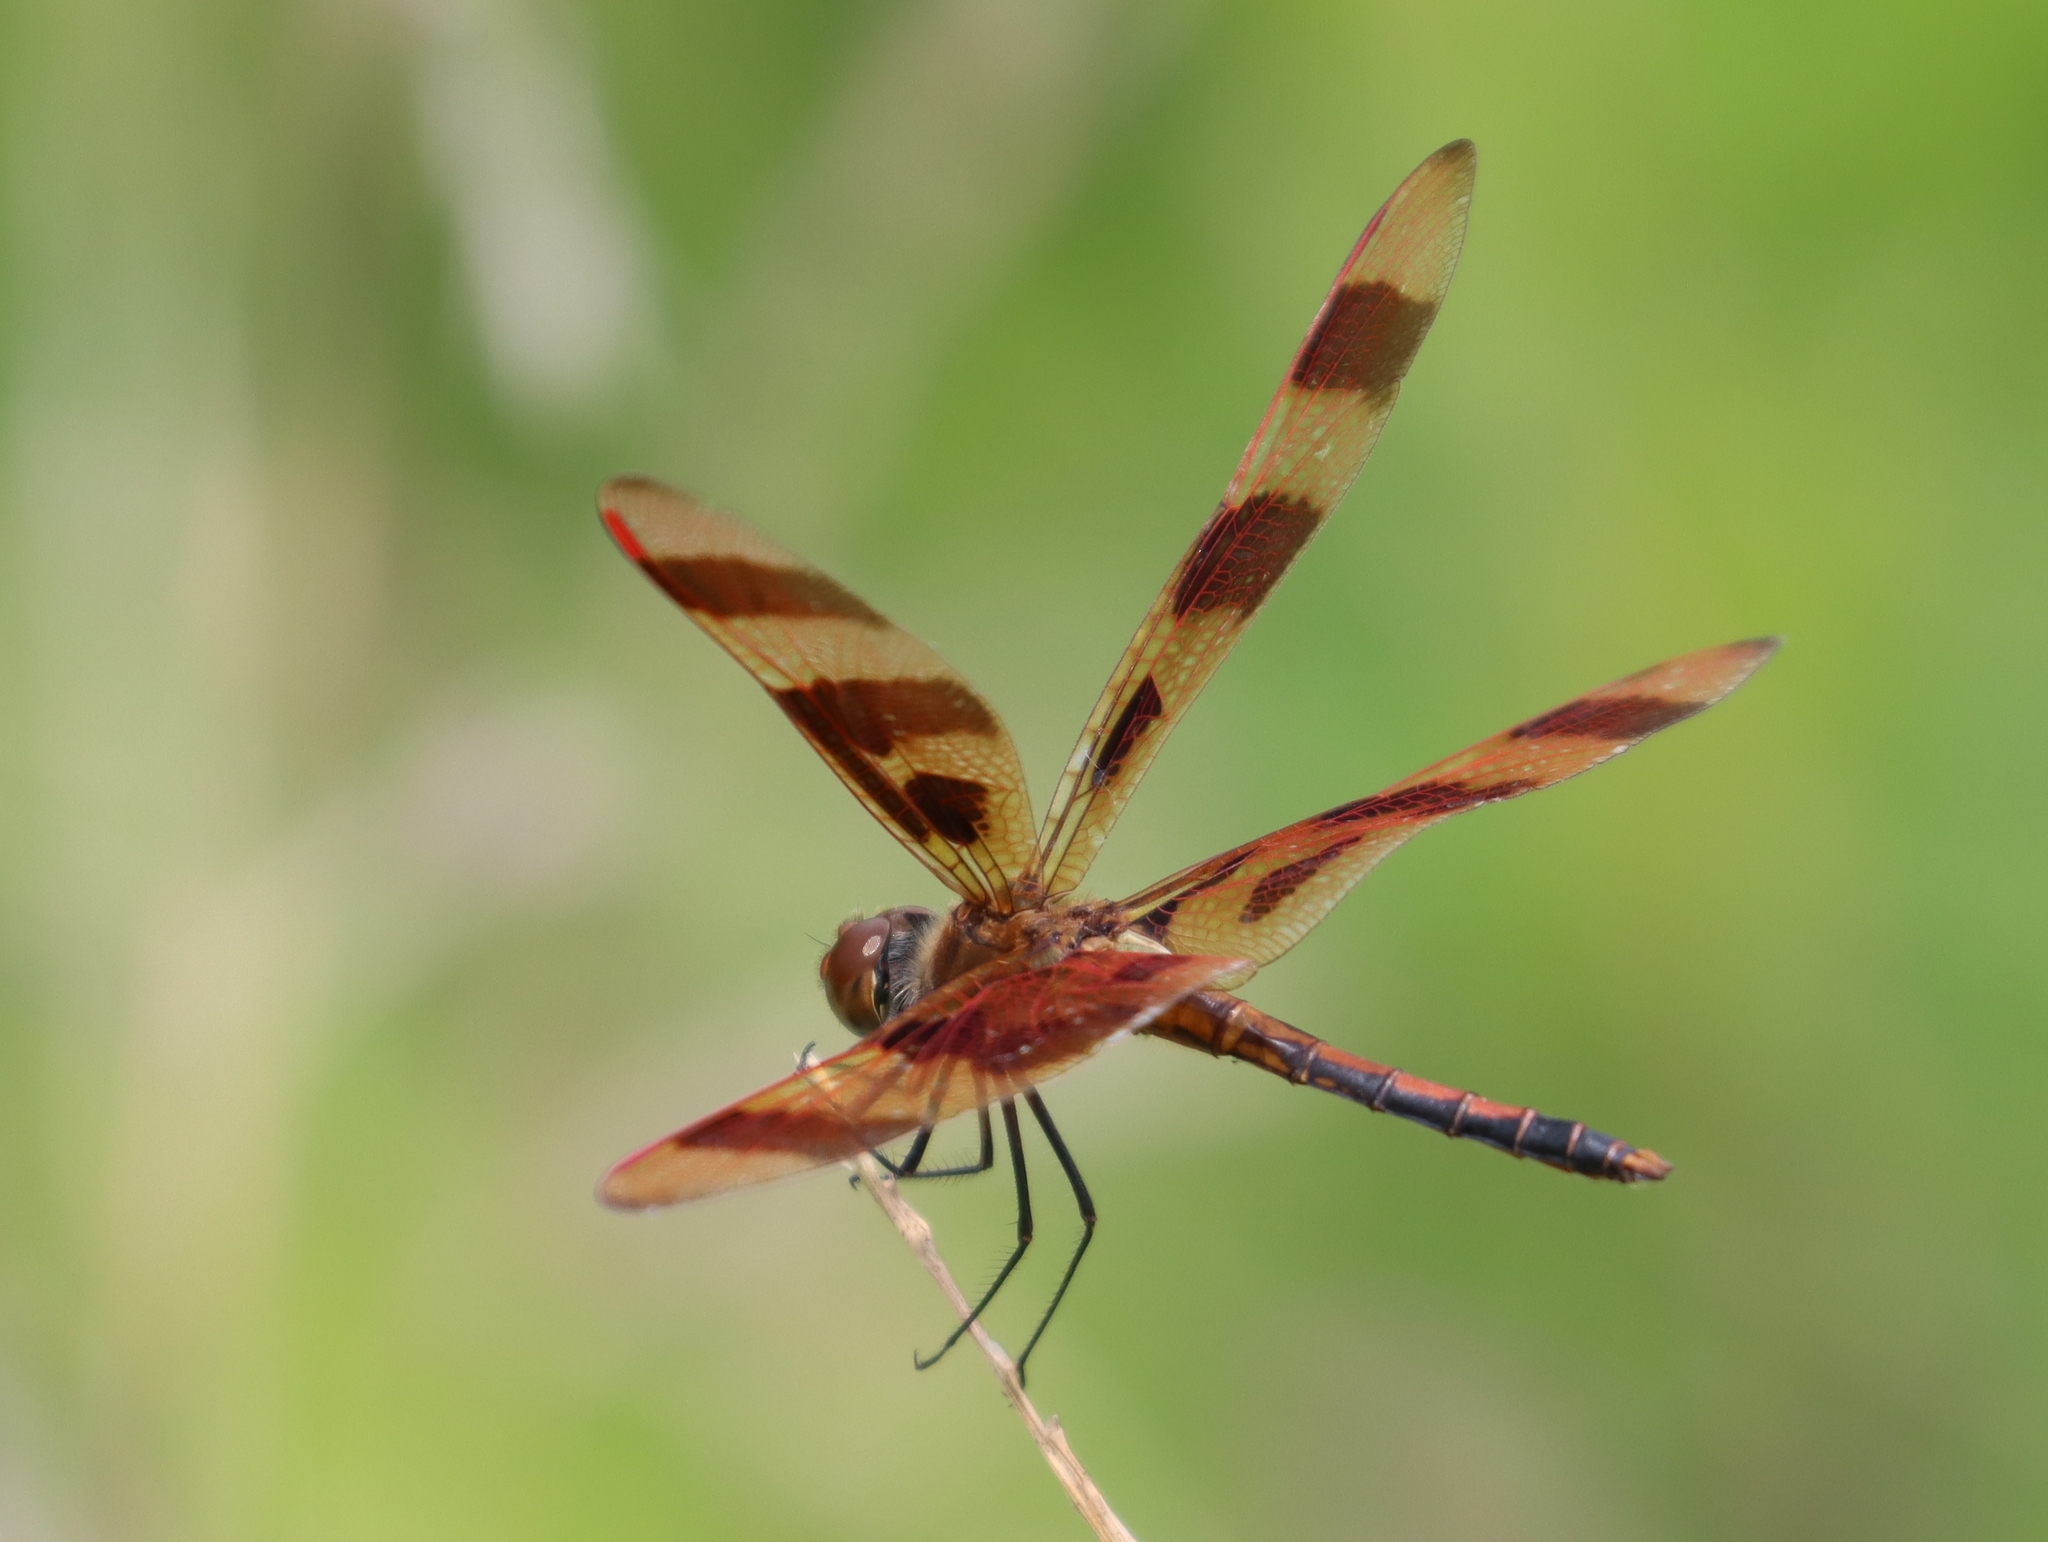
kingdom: Animalia
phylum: Arthropoda
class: Insecta
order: Odonata
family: Libellulidae
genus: Celithemis
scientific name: Celithemis eponina
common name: Halloween pennant
